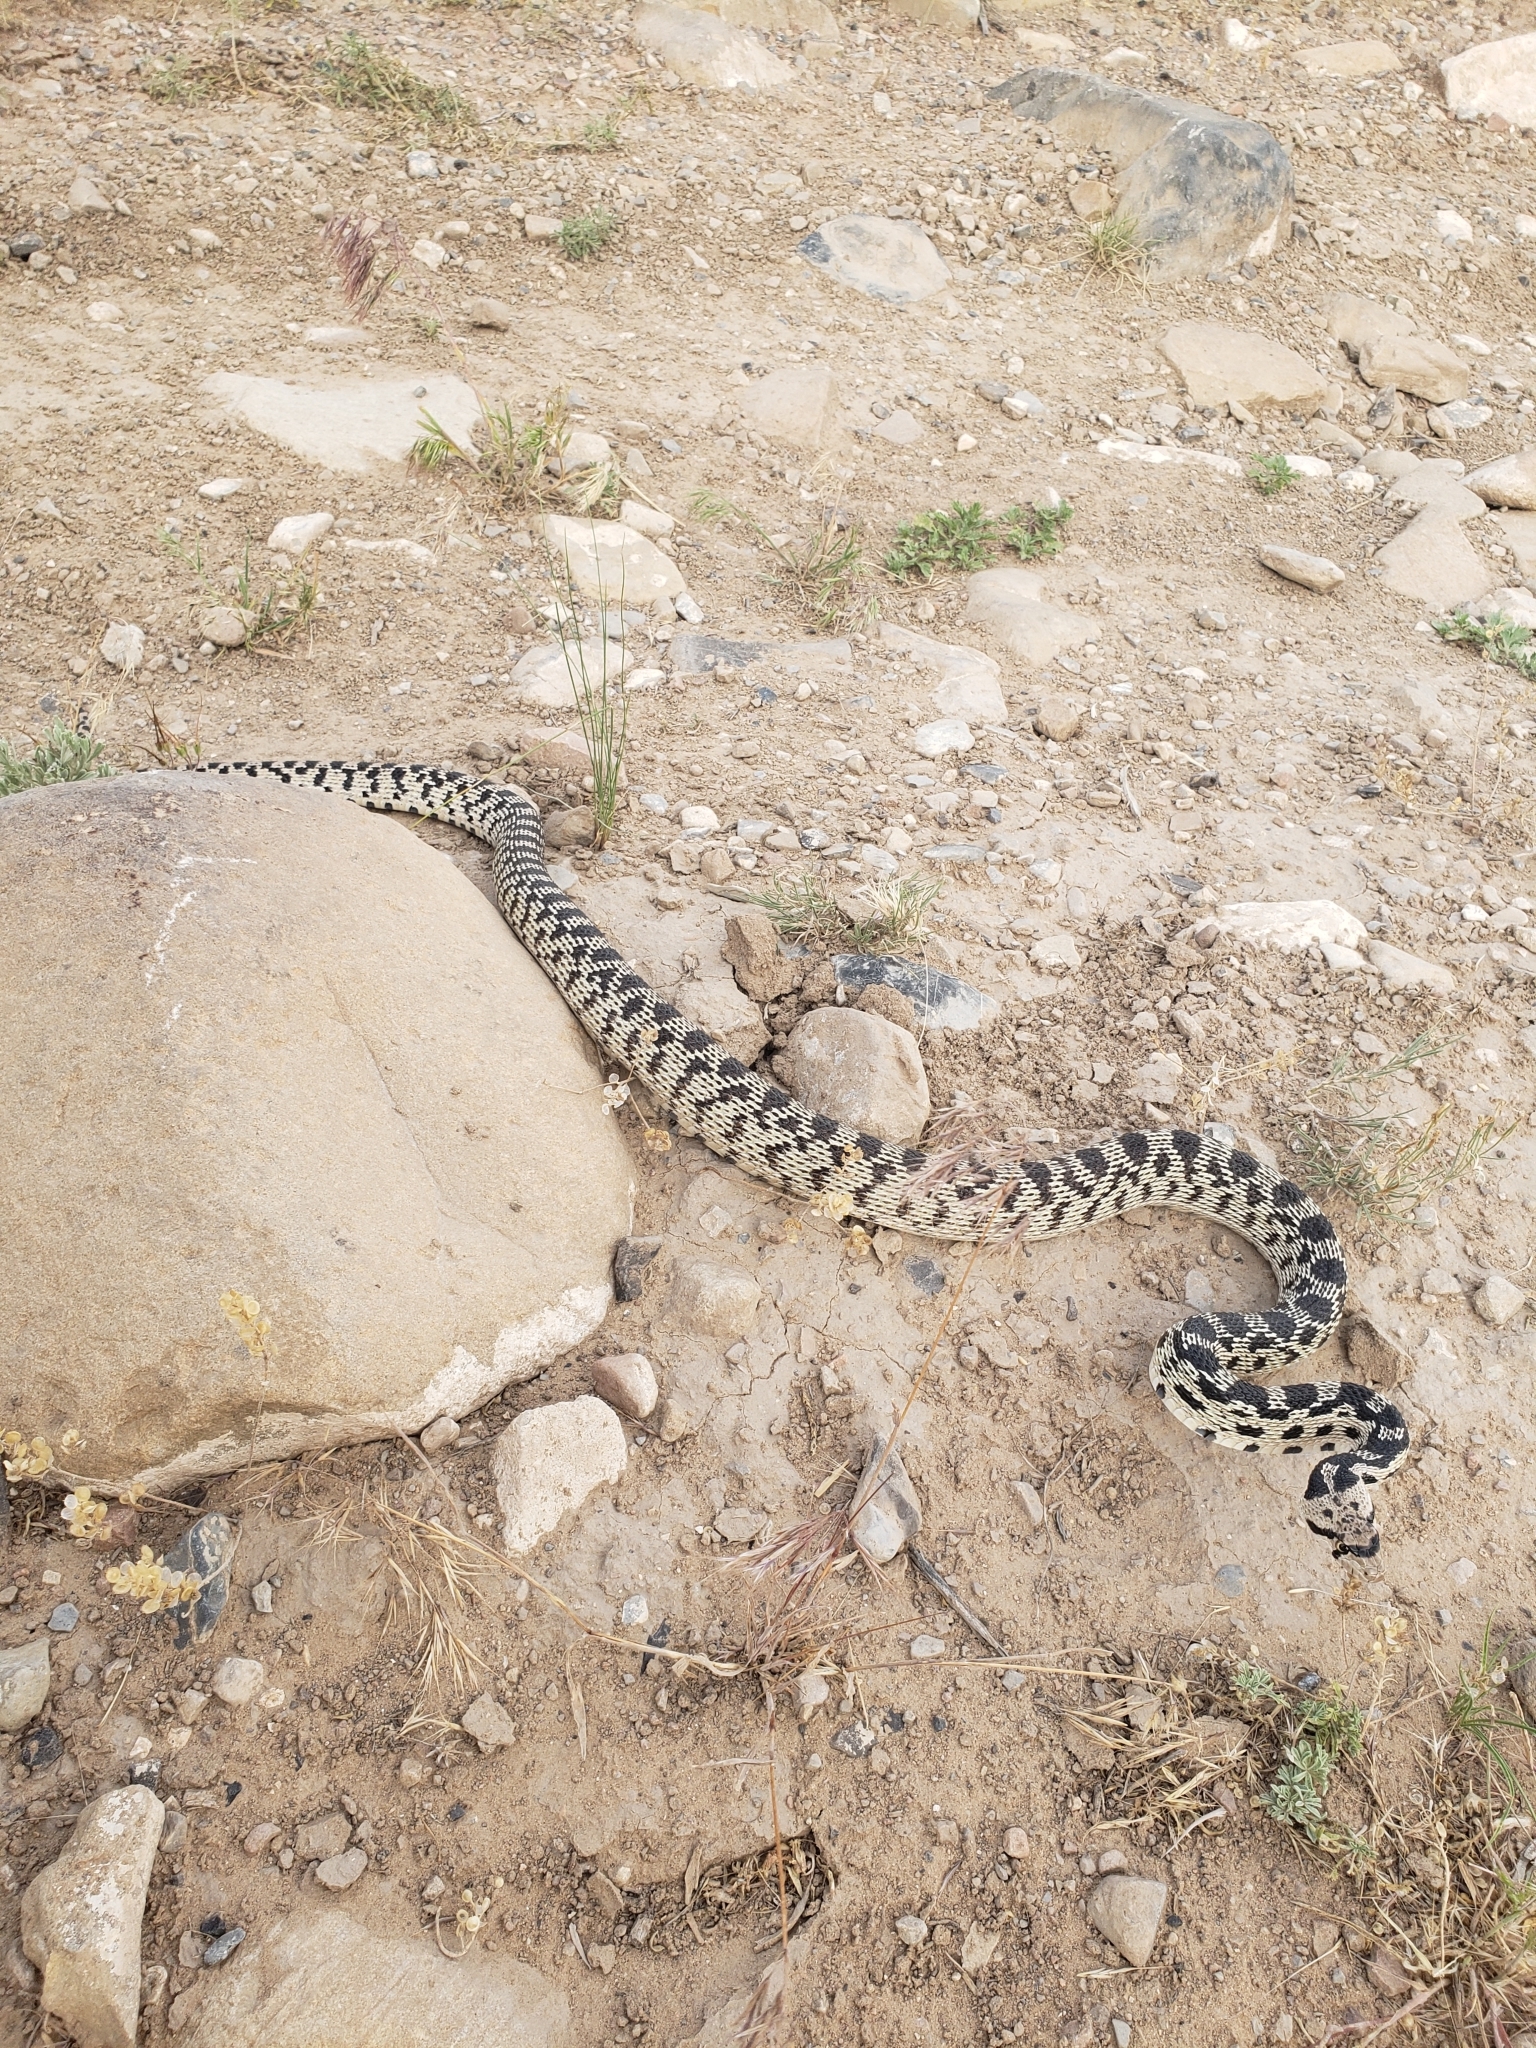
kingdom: Animalia
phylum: Chordata
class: Squamata
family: Colubridae
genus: Pituophis
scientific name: Pituophis catenifer
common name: Gopher snake
